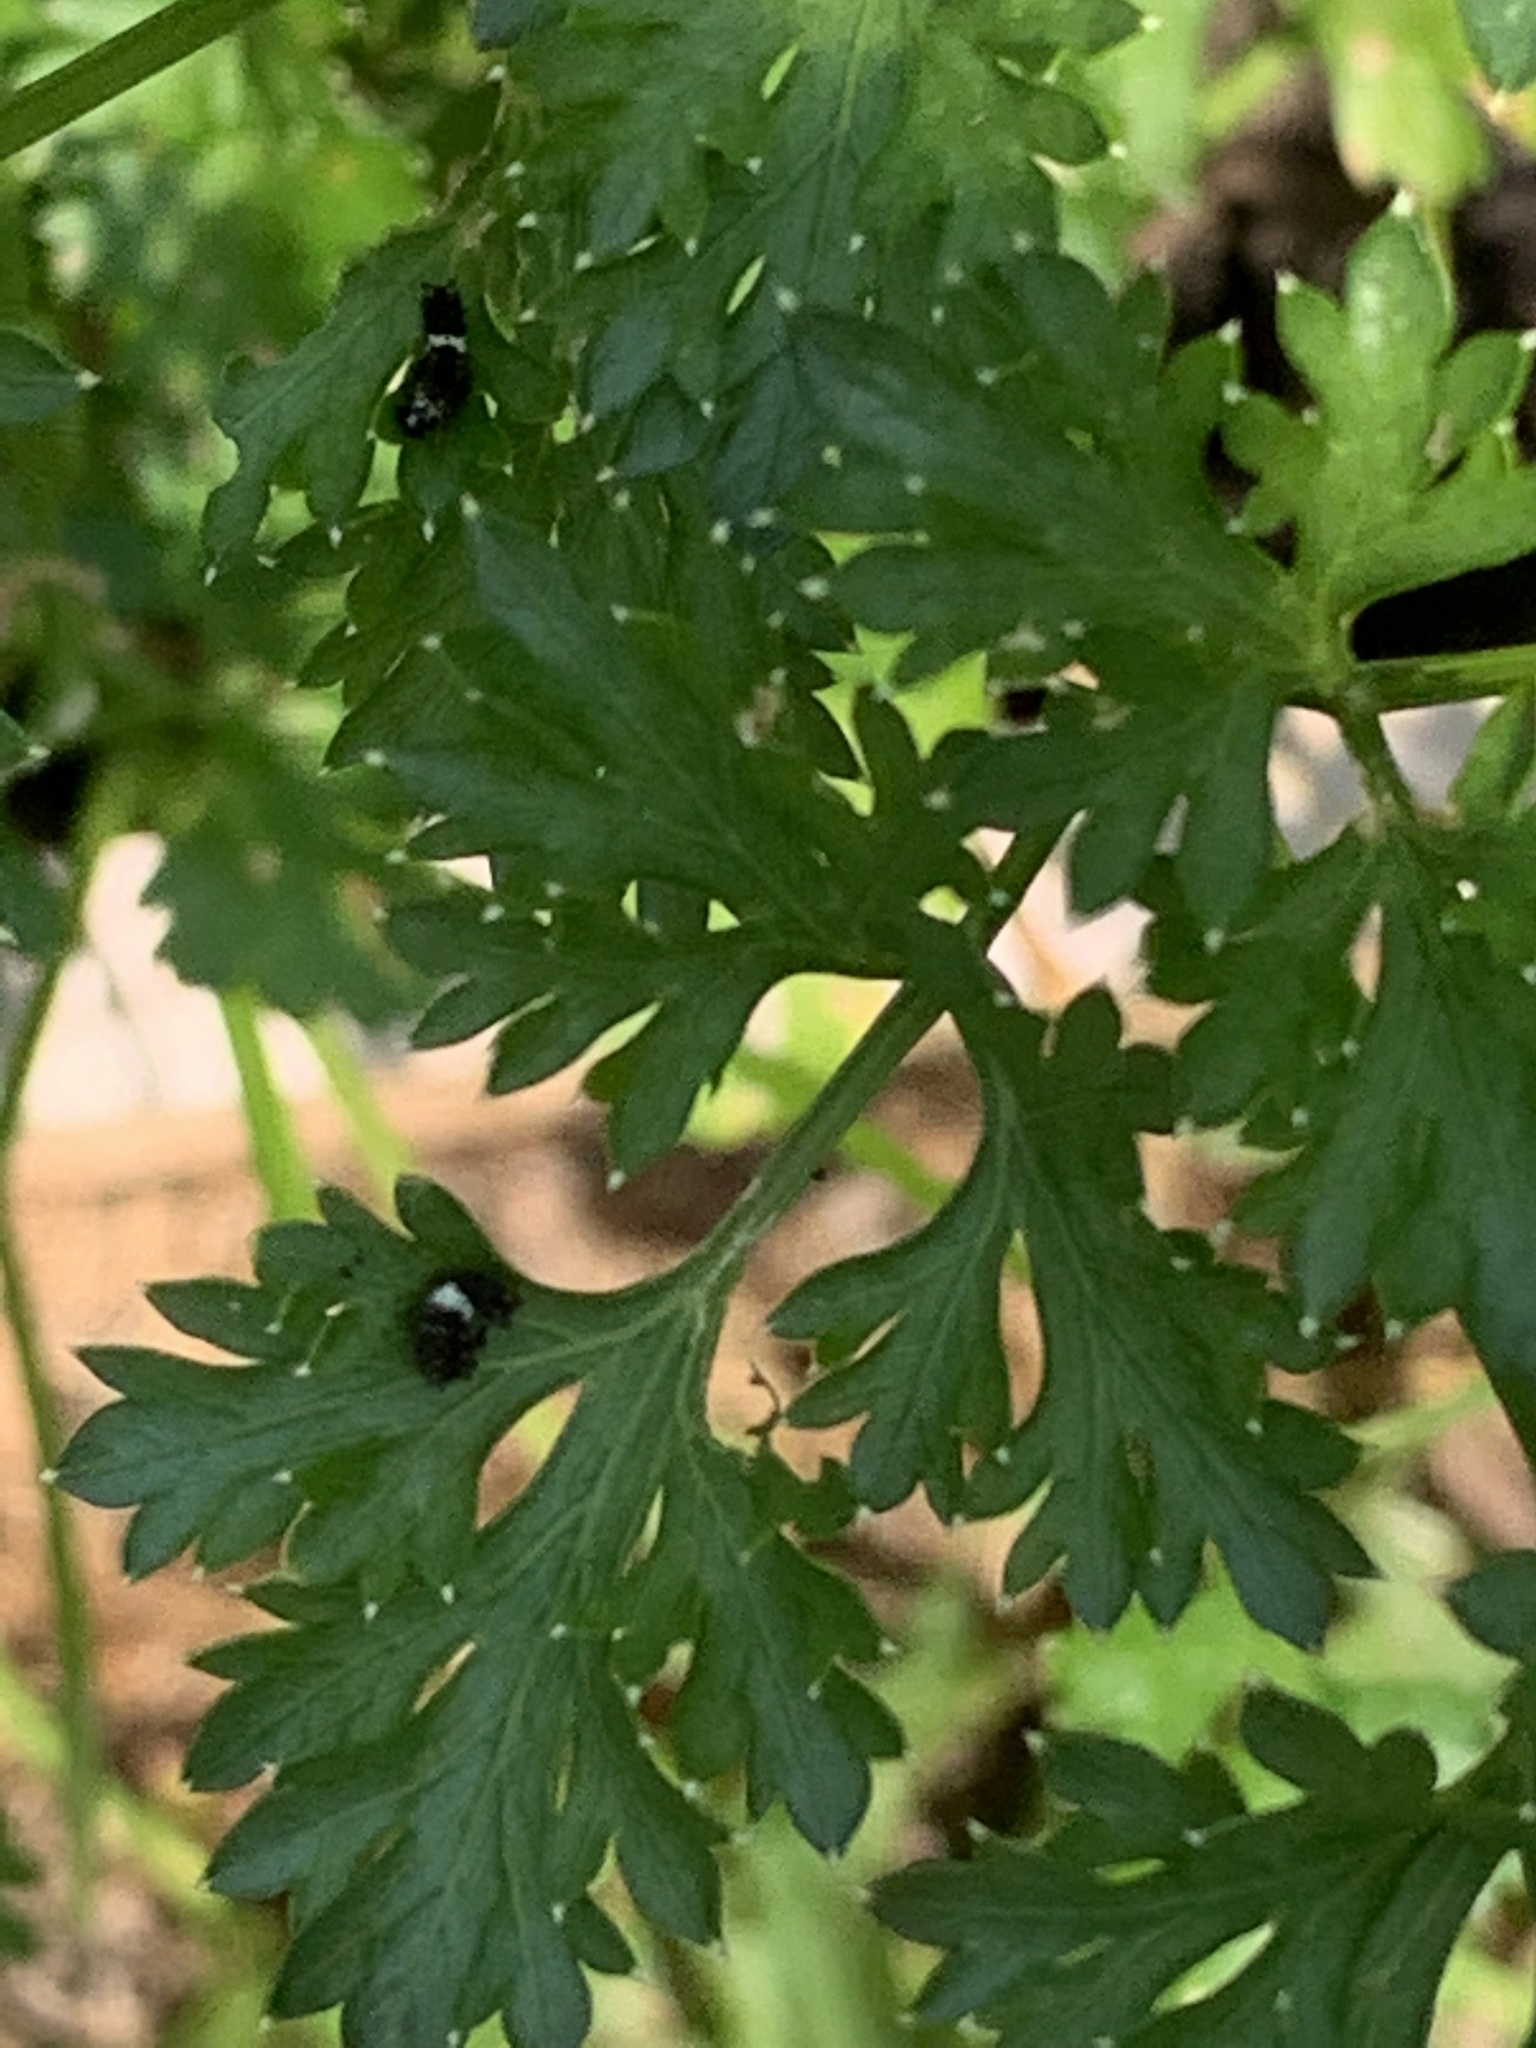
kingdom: Animalia
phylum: Arthropoda
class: Insecta
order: Lepidoptera
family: Papilionidae
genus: Papilio
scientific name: Papilio polyxenes
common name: Black swallowtail
